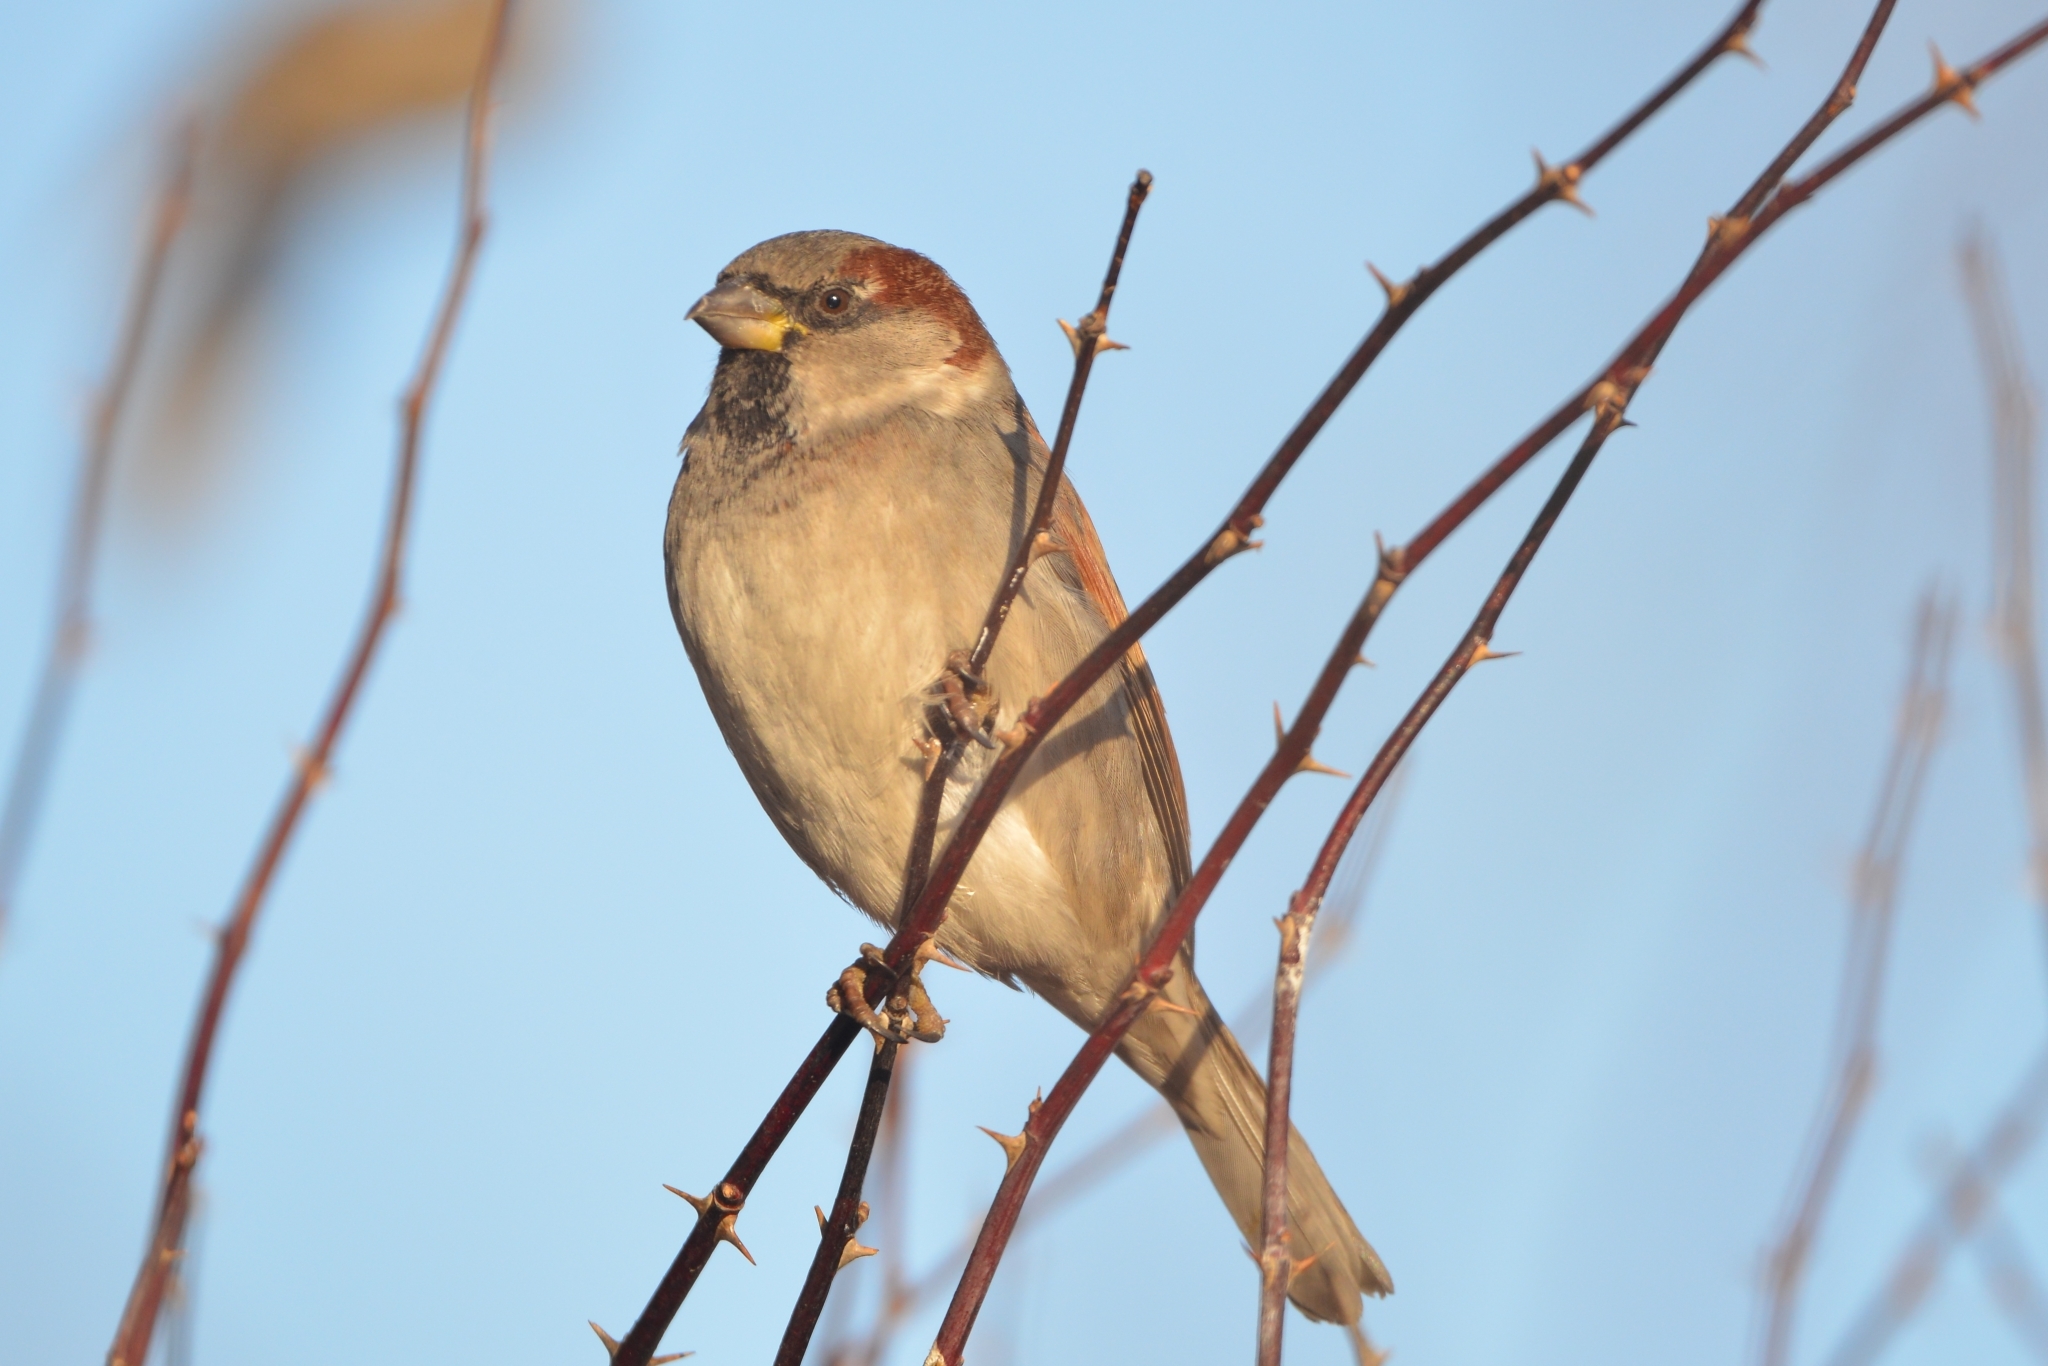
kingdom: Animalia
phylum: Chordata
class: Aves
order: Passeriformes
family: Passeridae
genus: Passer
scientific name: Passer domesticus
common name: House sparrow
